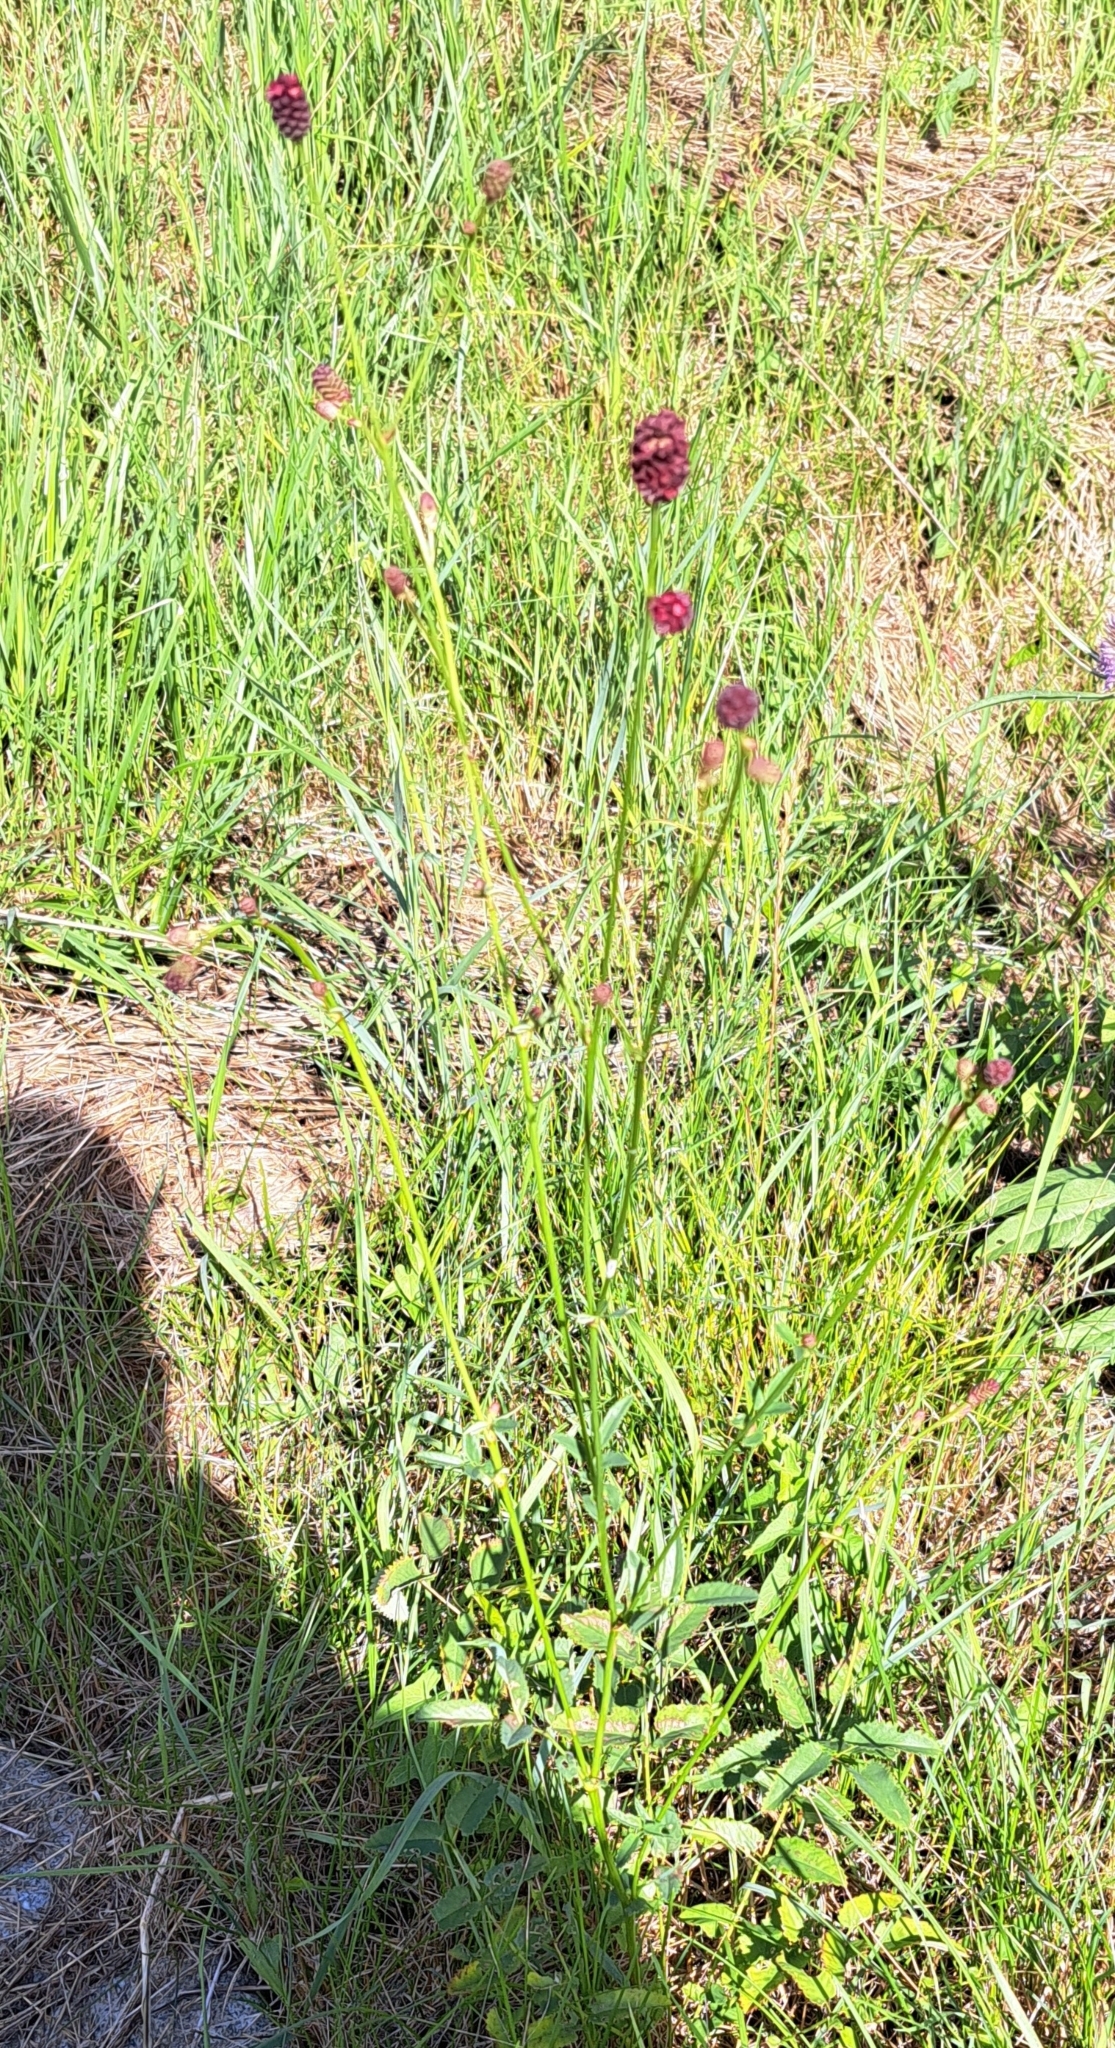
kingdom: Plantae
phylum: Tracheophyta
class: Magnoliopsida
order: Rosales
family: Rosaceae
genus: Sanguisorba
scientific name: Sanguisorba officinalis
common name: Great burnet
